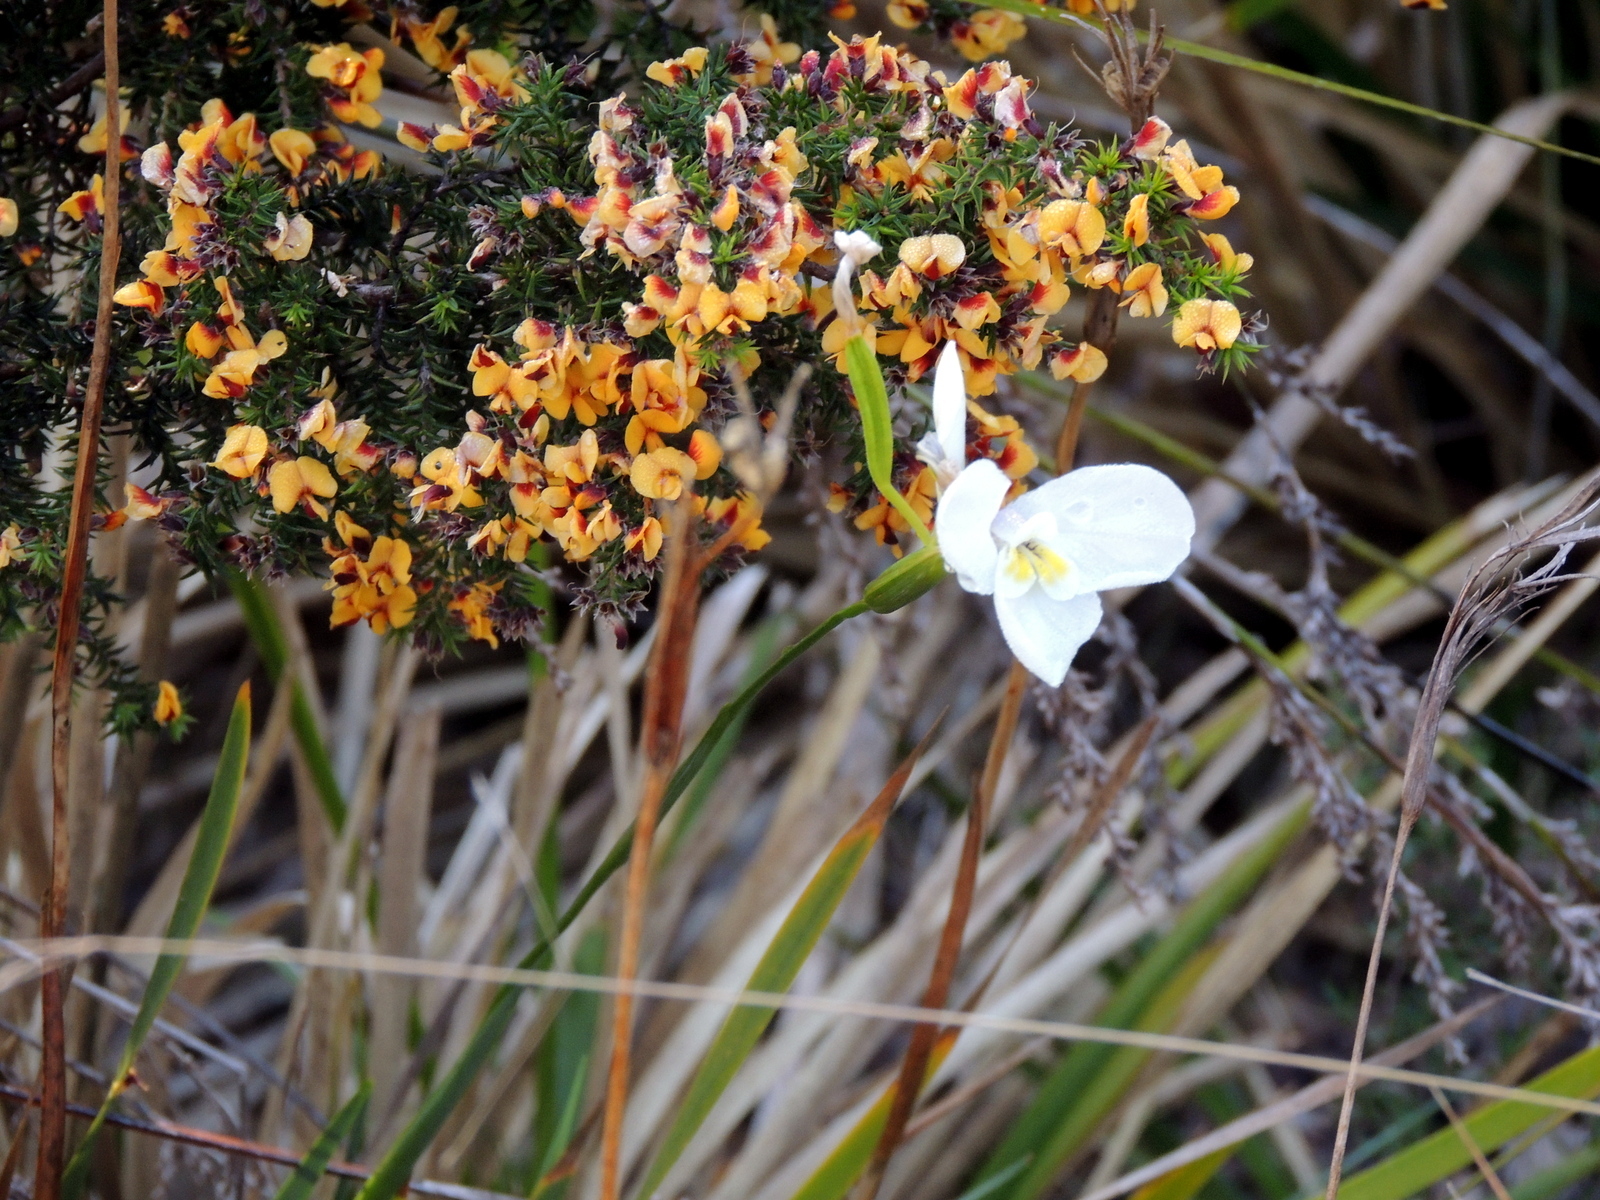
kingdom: Plantae
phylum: Tracheophyta
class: Liliopsida
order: Asparagales
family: Iridaceae
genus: Diplarrena
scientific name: Diplarrena moraea
